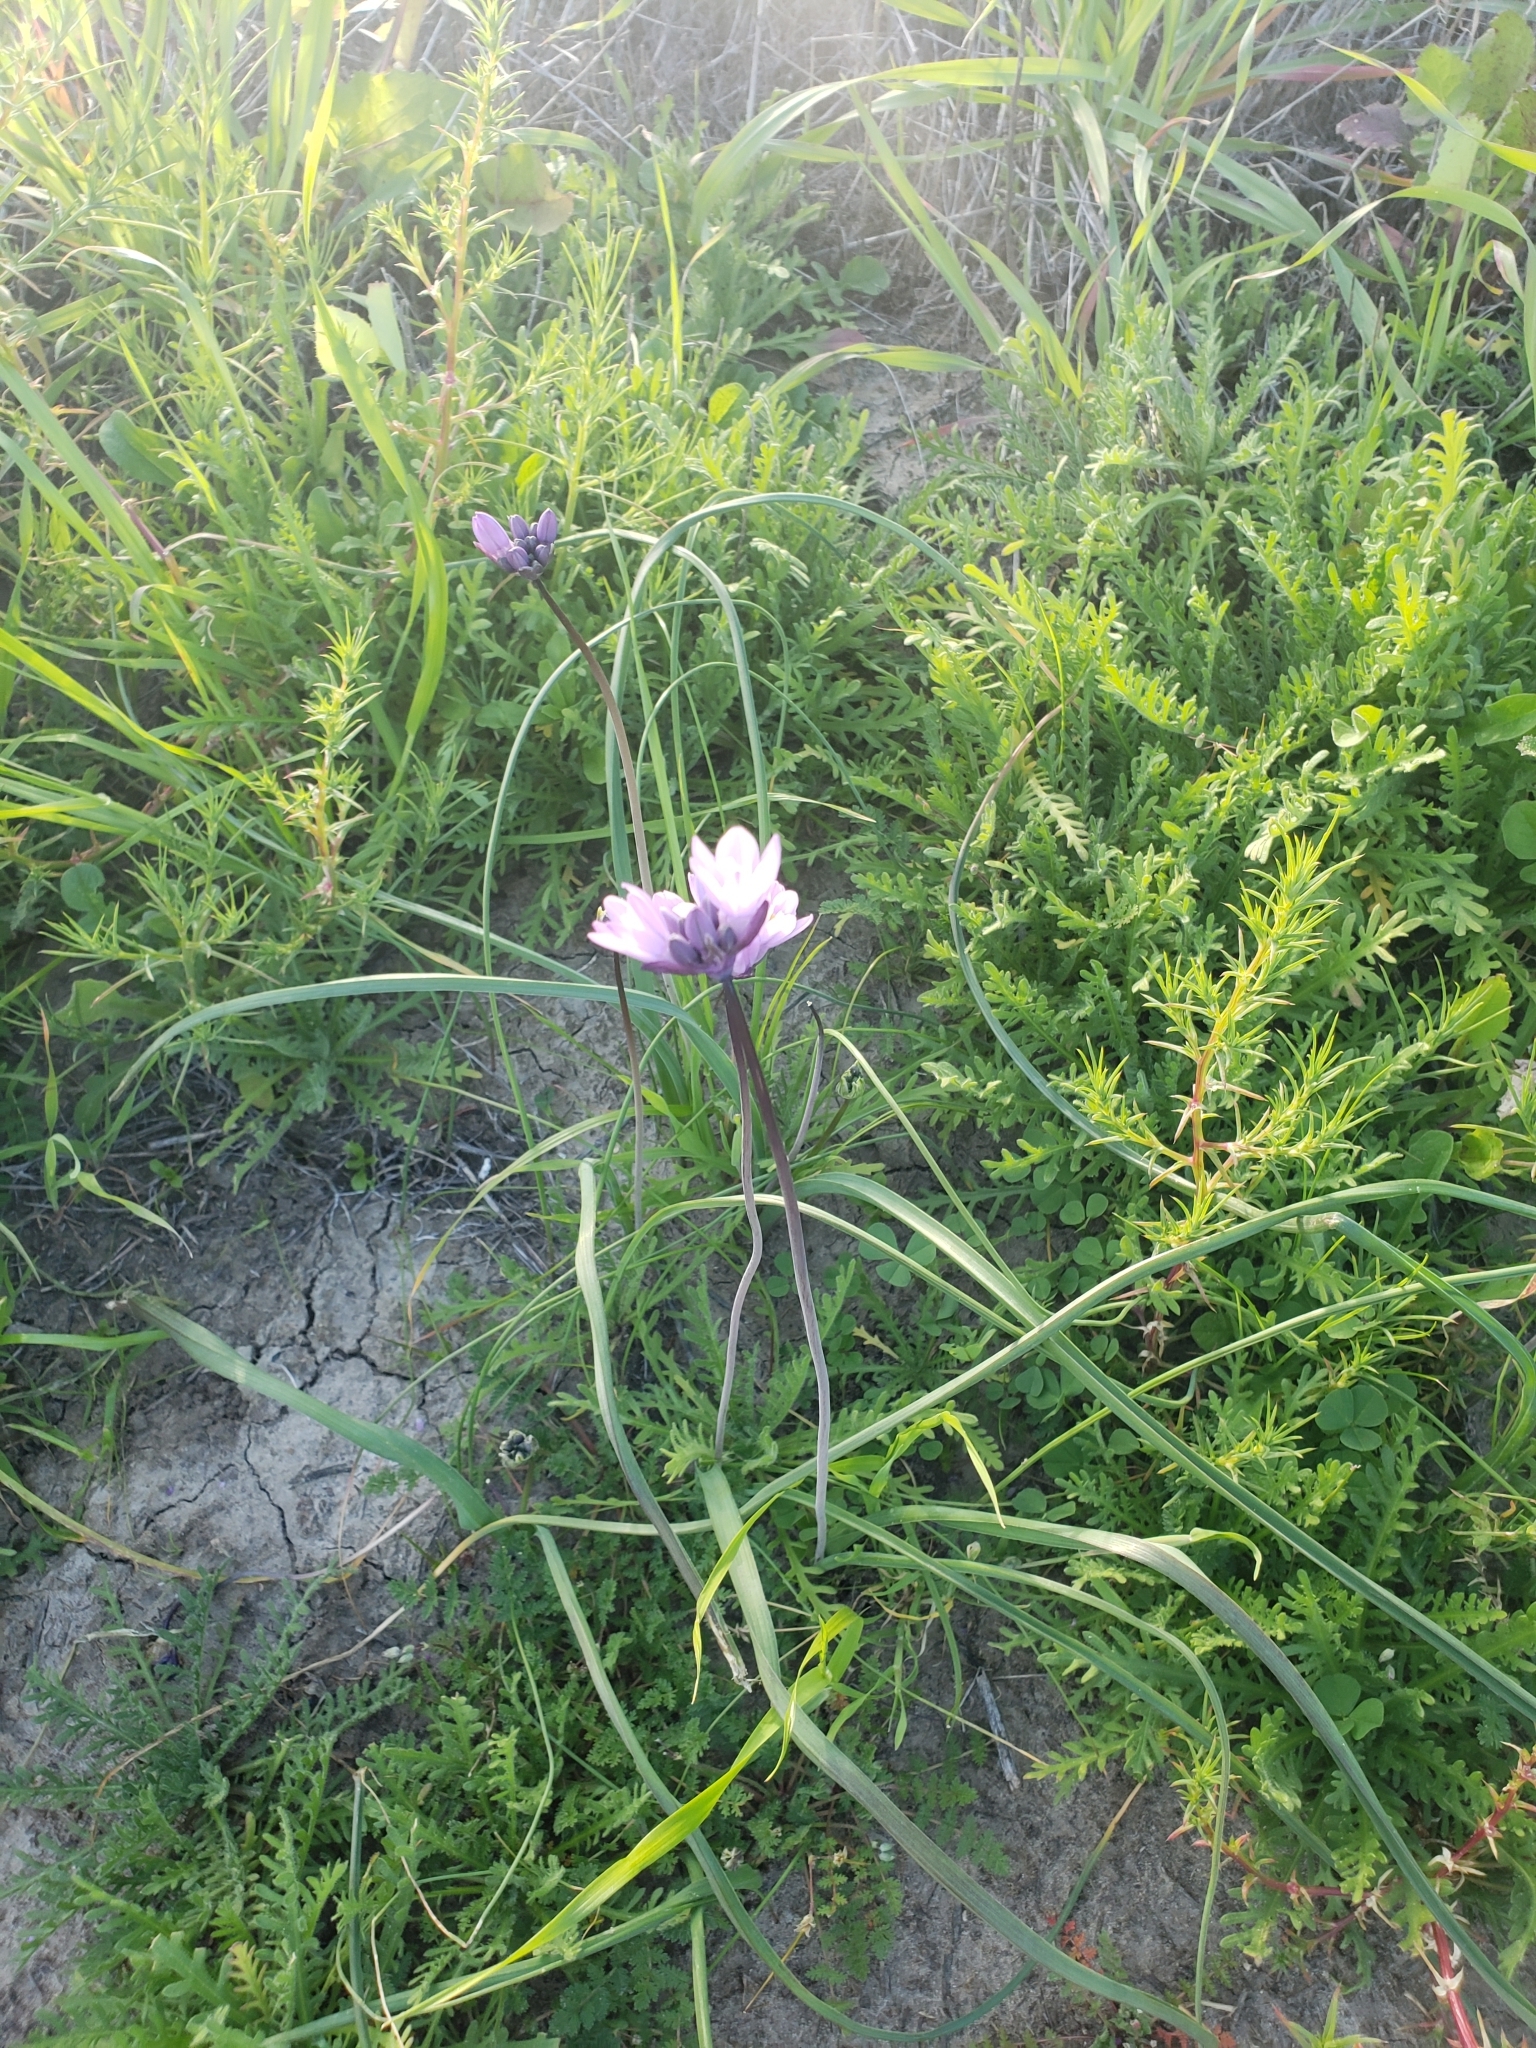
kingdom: Plantae
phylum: Tracheophyta
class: Liliopsida
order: Asparagales
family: Asparagaceae
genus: Dipterostemon
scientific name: Dipterostemon capitatus
